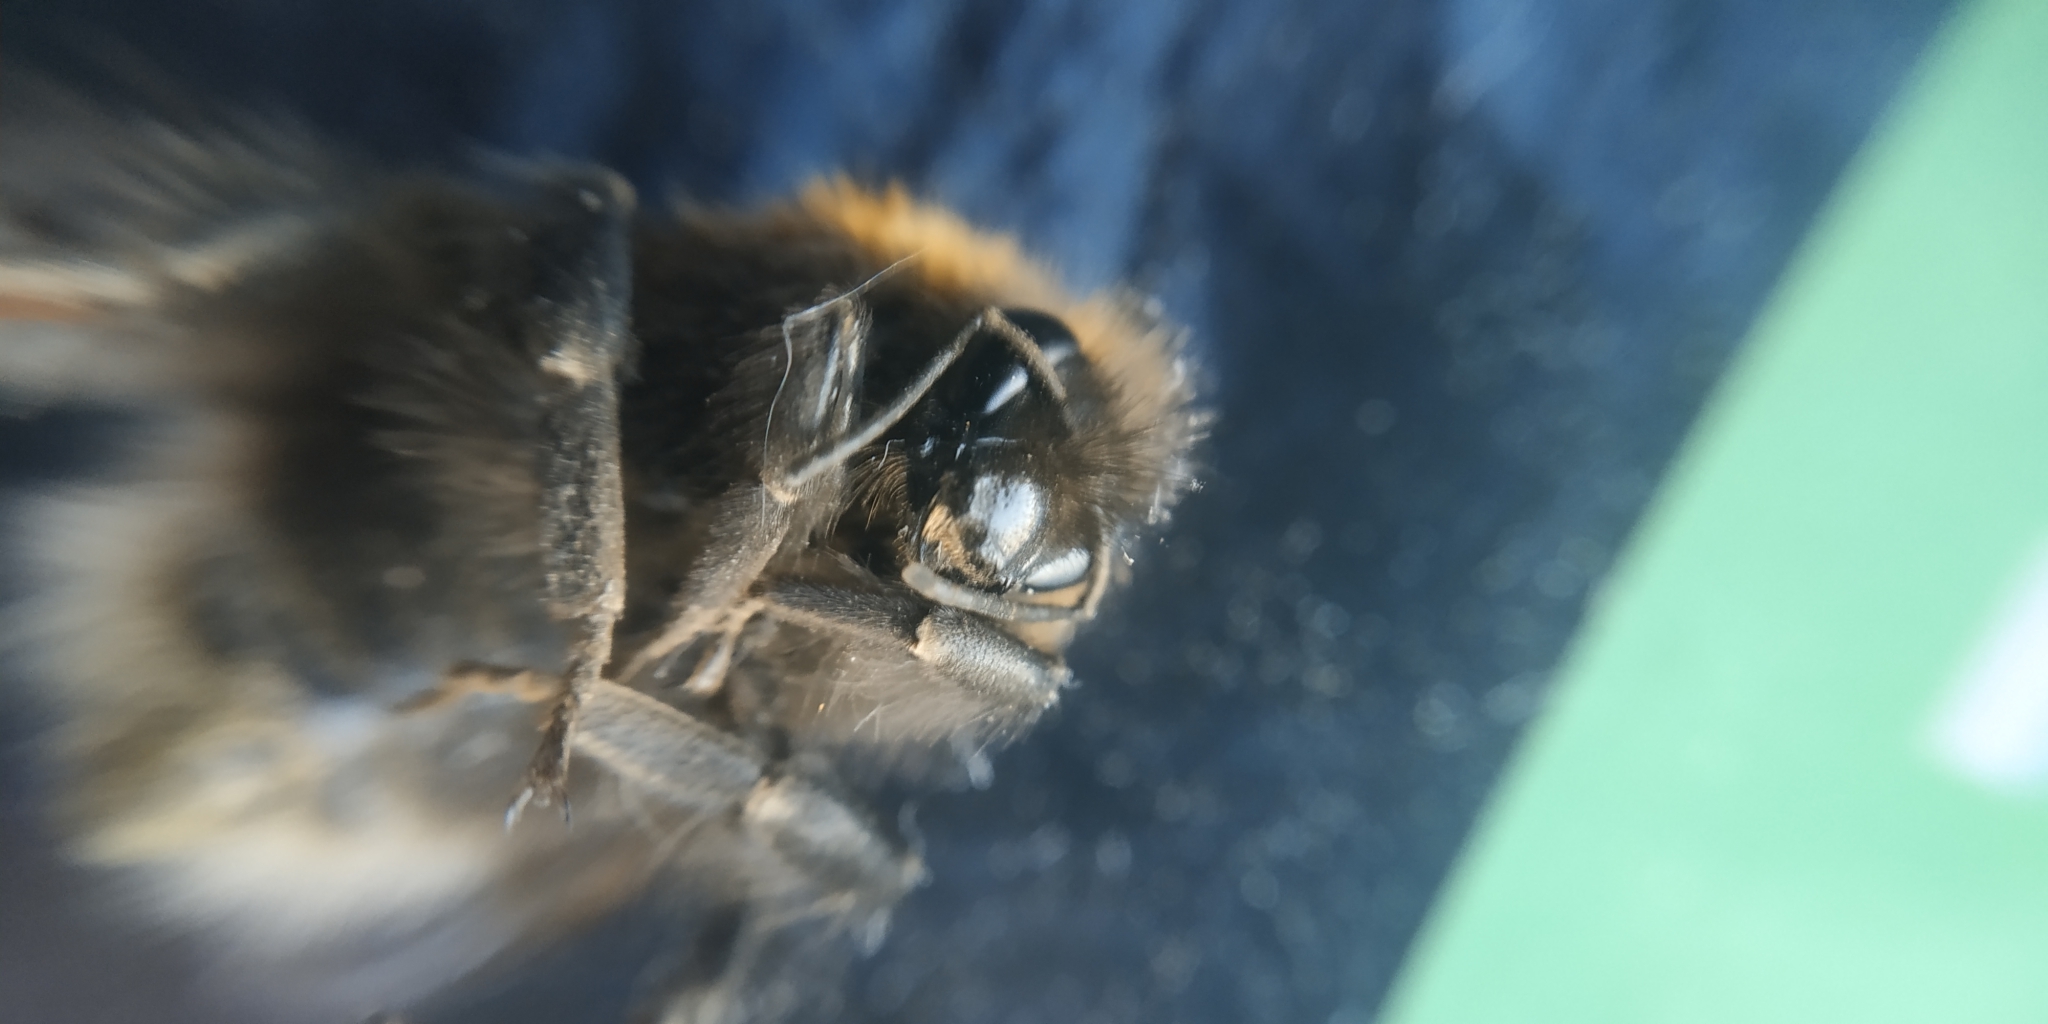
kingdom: Animalia
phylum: Arthropoda
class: Insecta
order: Hymenoptera
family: Apidae
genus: Bombus
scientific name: Bombus hypnorum
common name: New garden bumblebee
